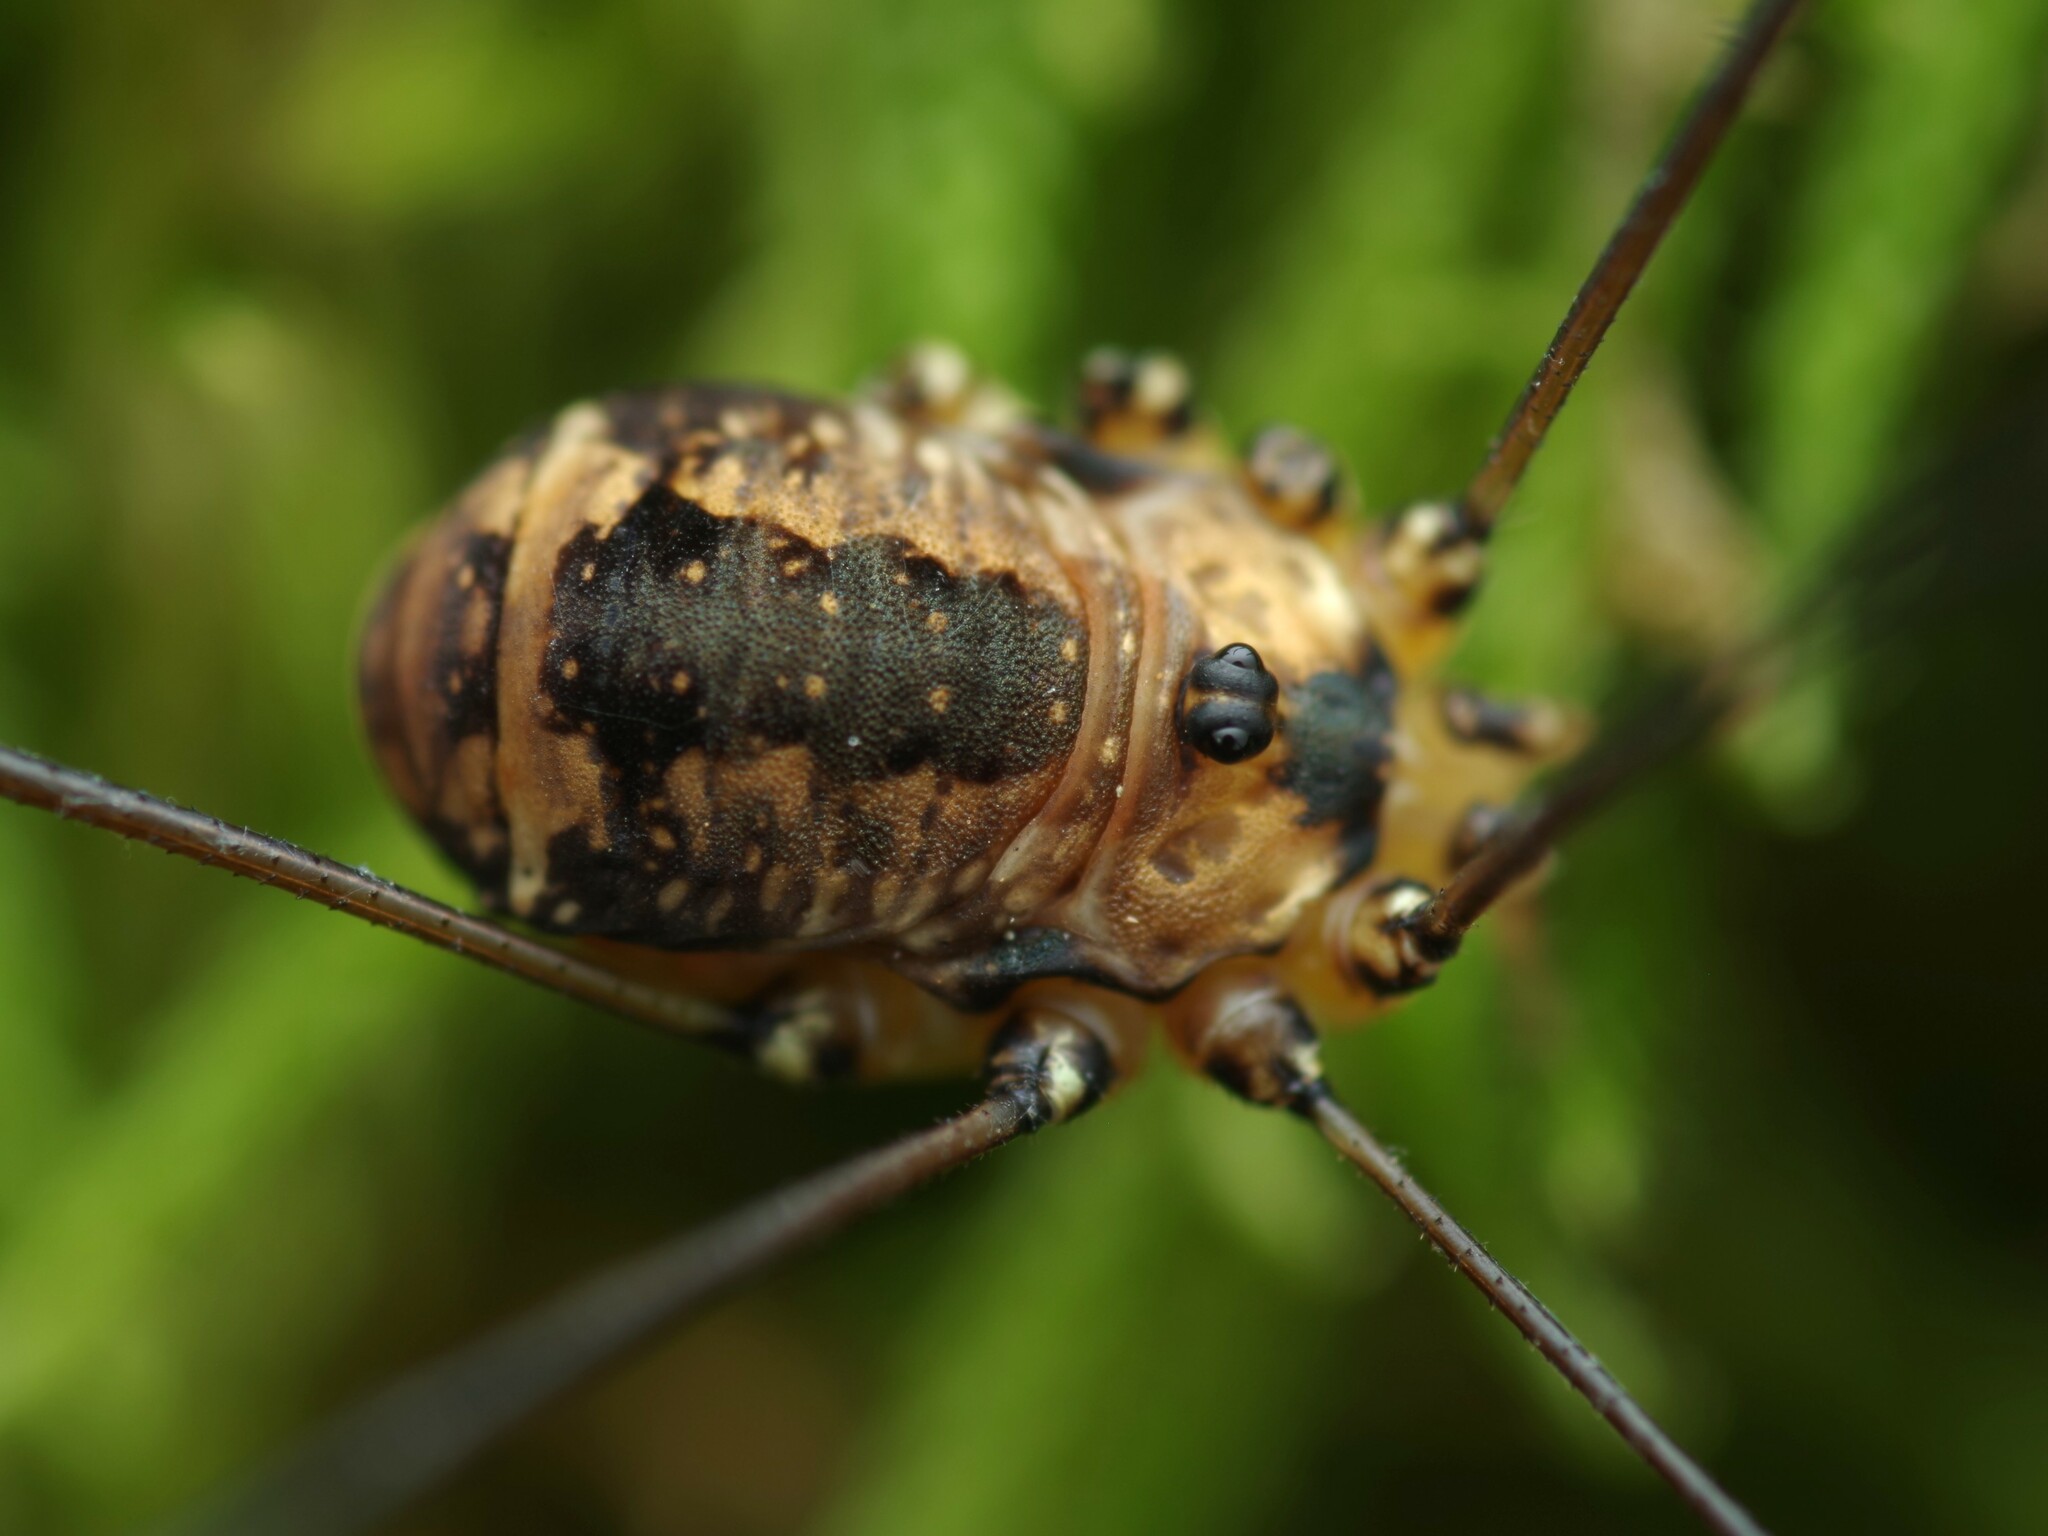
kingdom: Animalia
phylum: Arthropoda
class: Arachnida
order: Opiliones
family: Sclerosomatidae
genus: Leiobunum
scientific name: Leiobunum rotundum
